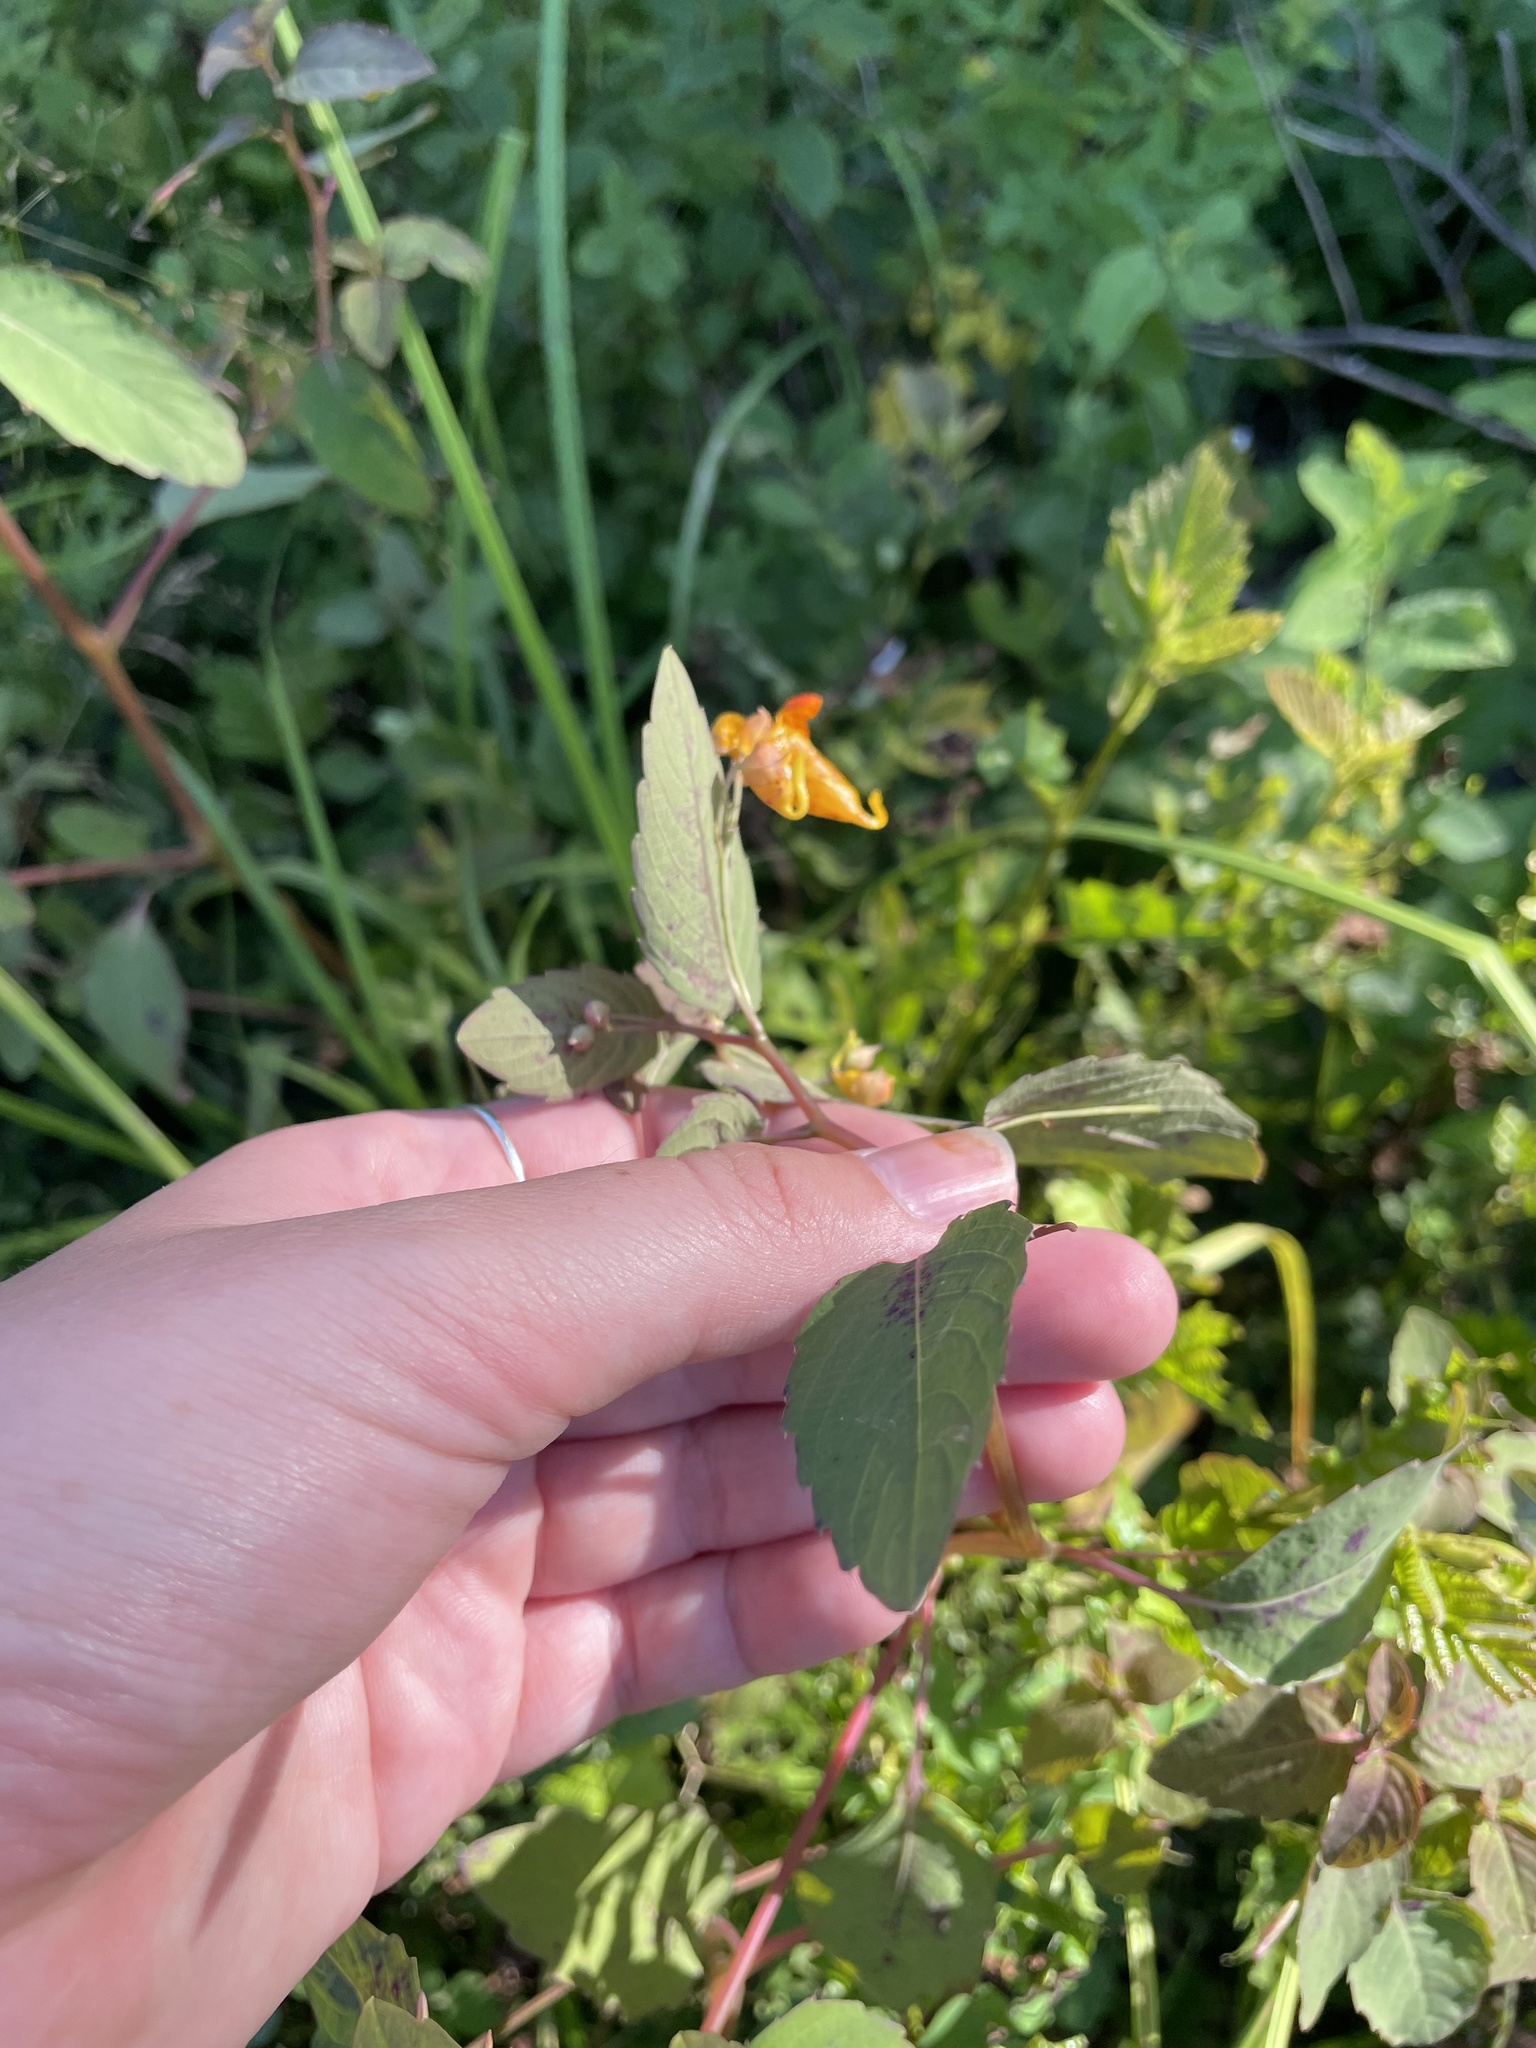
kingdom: Plantae
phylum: Tracheophyta
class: Magnoliopsida
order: Ericales
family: Balsaminaceae
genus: Impatiens
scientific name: Impatiens capensis
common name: Orange balsam
